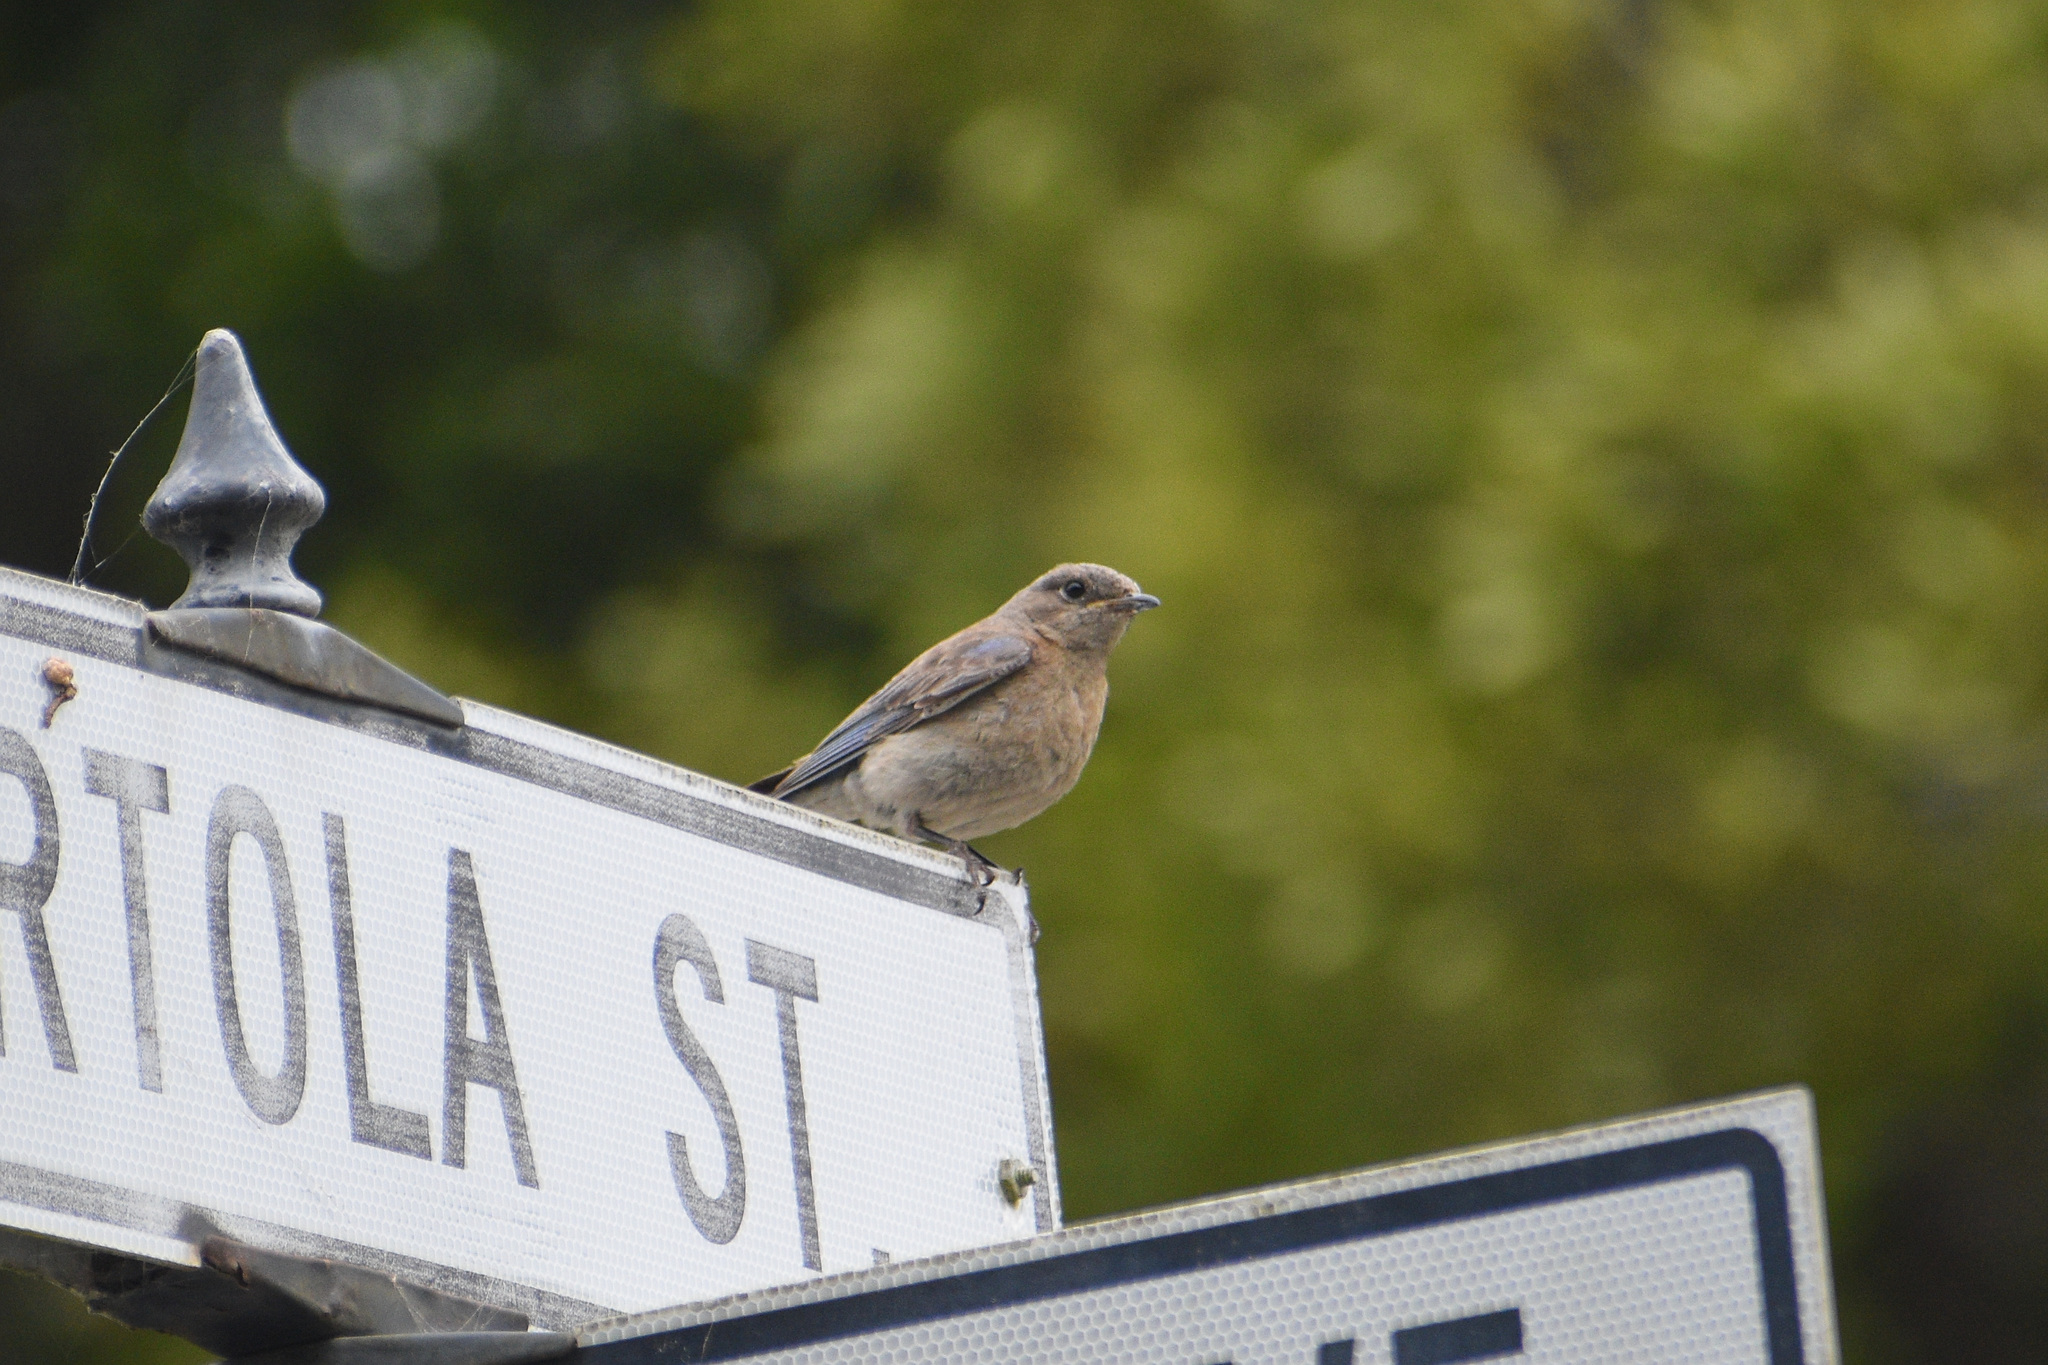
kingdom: Animalia
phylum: Chordata
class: Aves
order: Passeriformes
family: Turdidae
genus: Sialia
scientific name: Sialia mexicana
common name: Western bluebird
